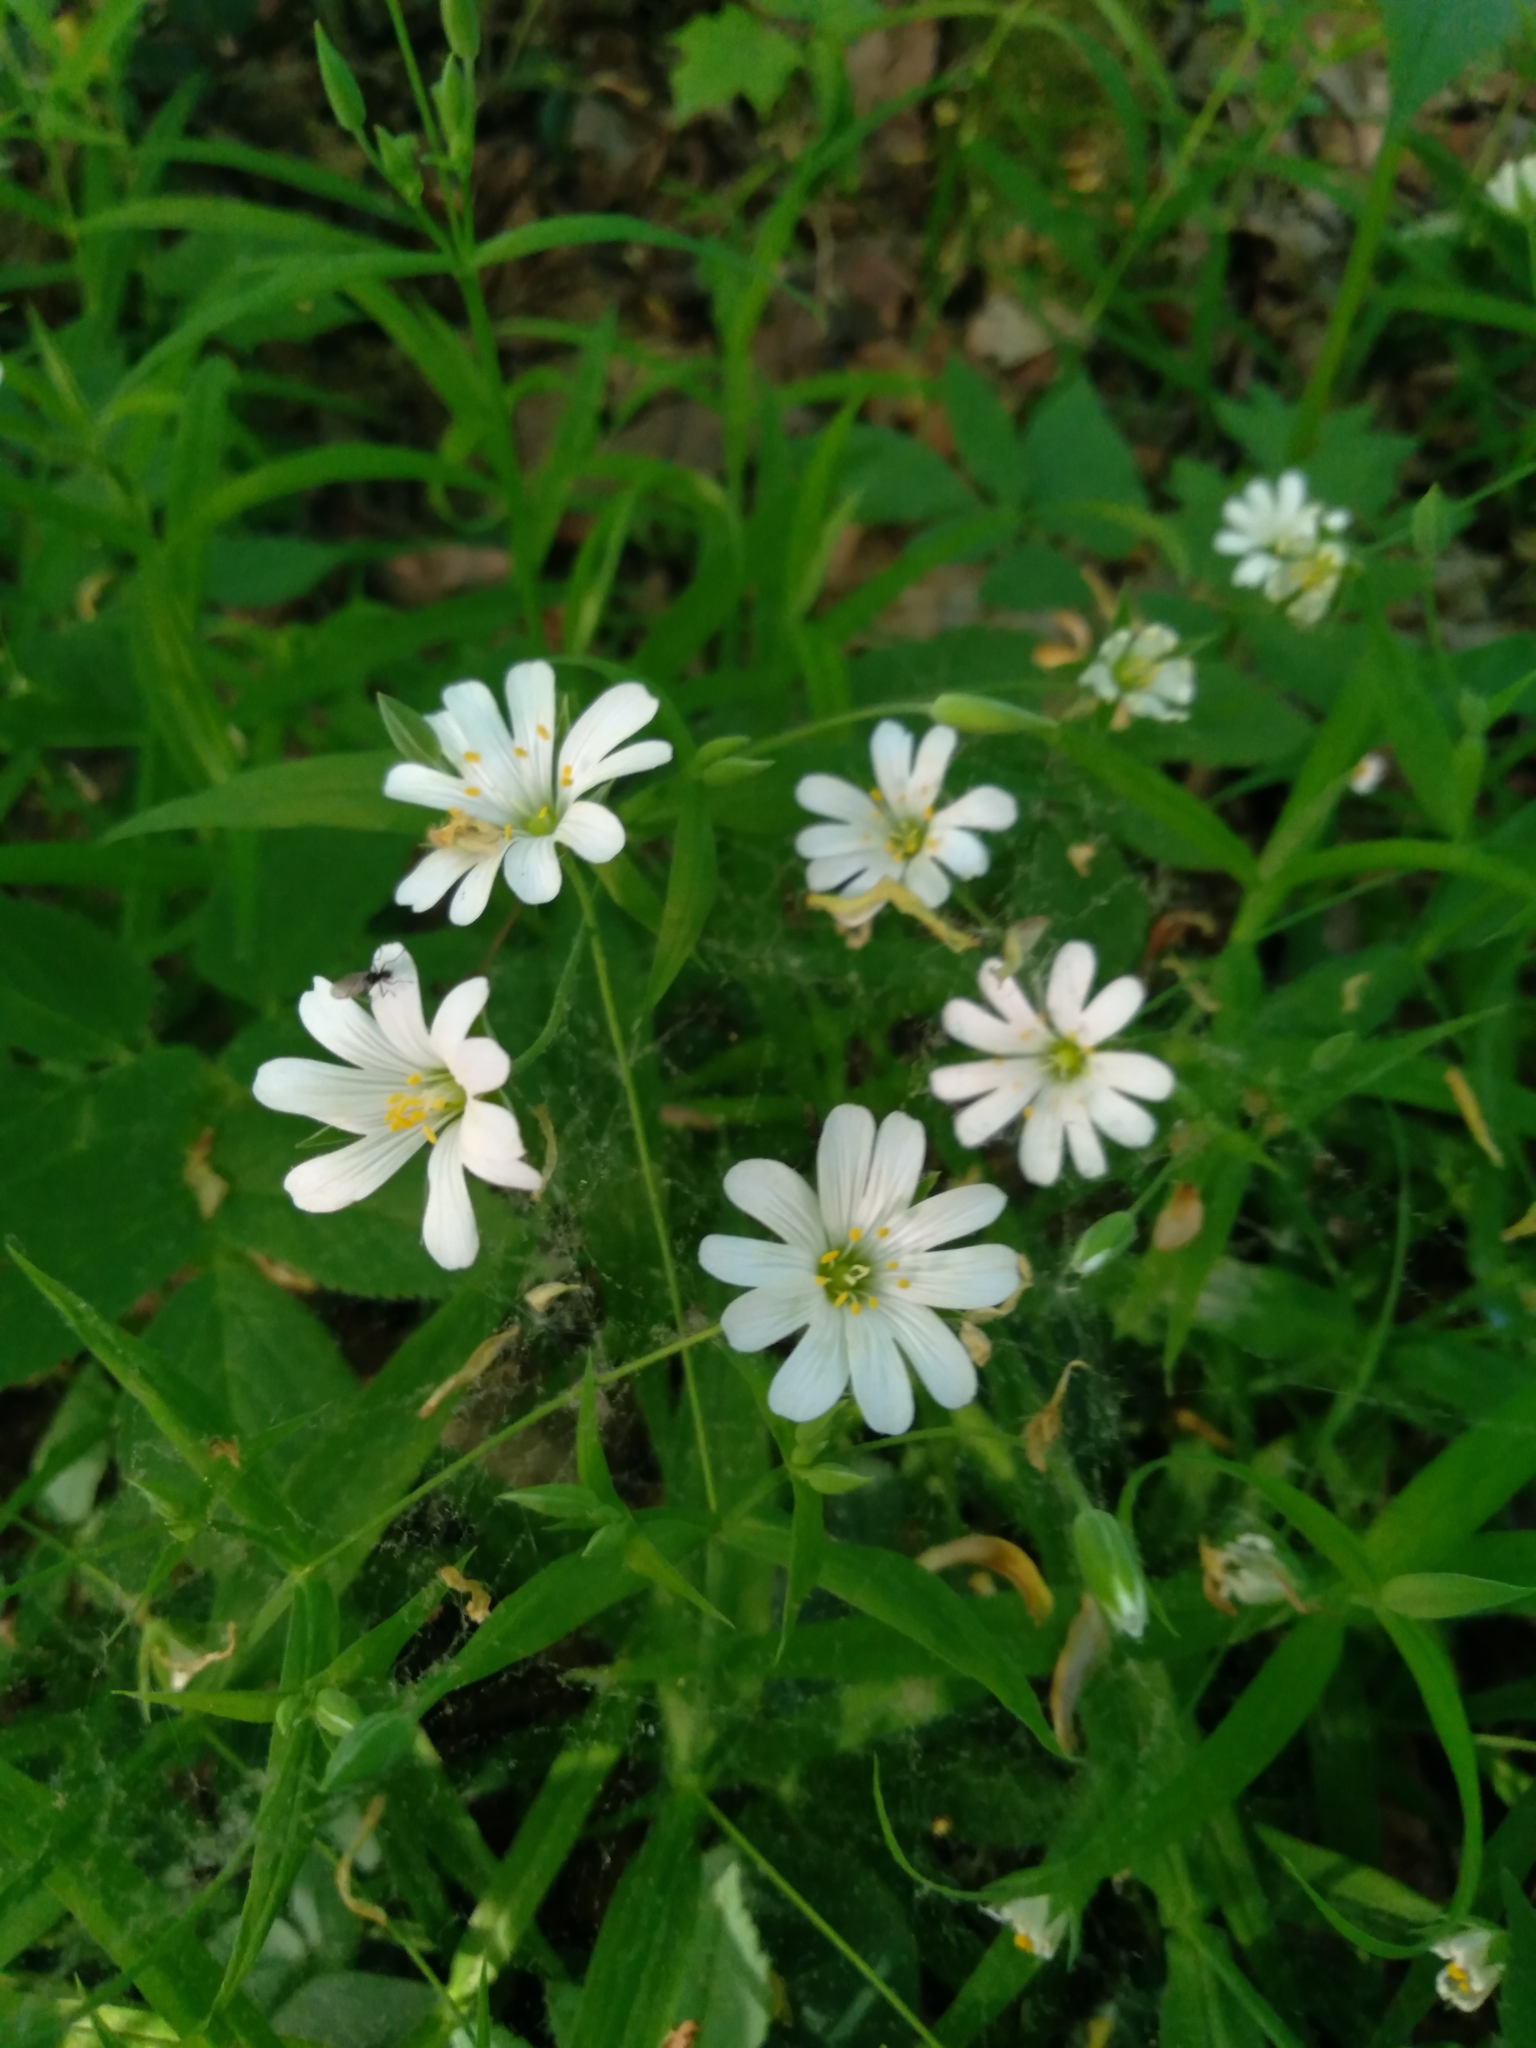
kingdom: Plantae
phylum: Tracheophyta
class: Magnoliopsida
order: Caryophyllales
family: Caryophyllaceae
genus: Rabelera
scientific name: Rabelera holostea
